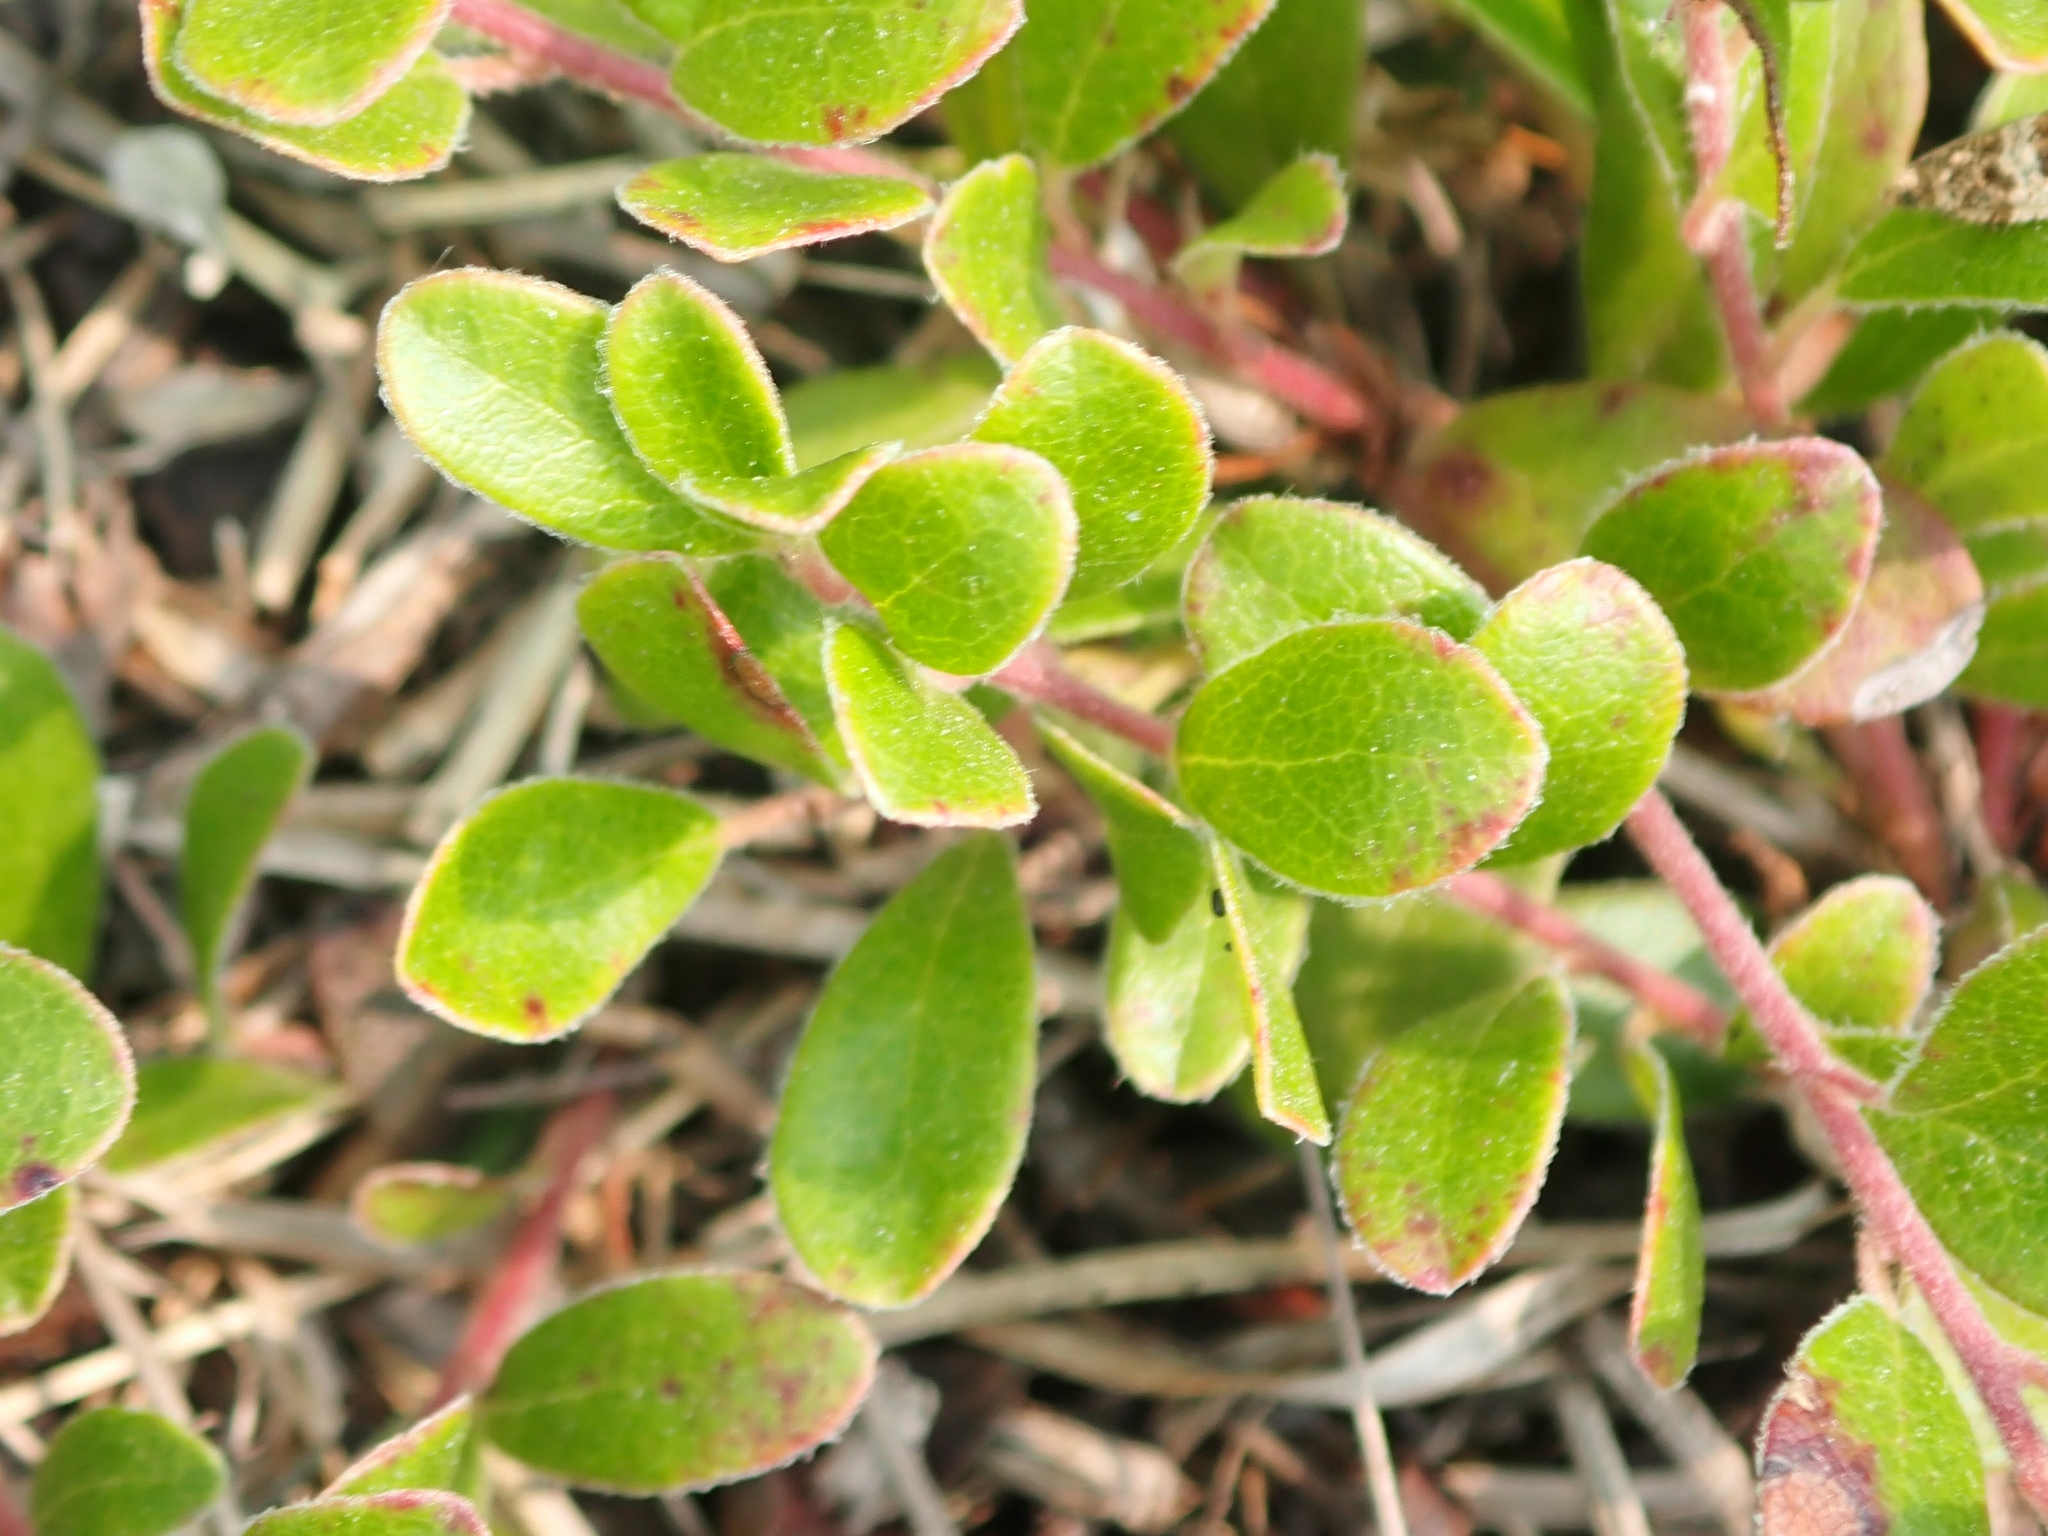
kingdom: Plantae
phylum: Tracheophyta
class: Magnoliopsida
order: Ericales
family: Ericaceae
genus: Arctostaphylos
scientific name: Arctostaphylos uva-ursi
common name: Bearberry
